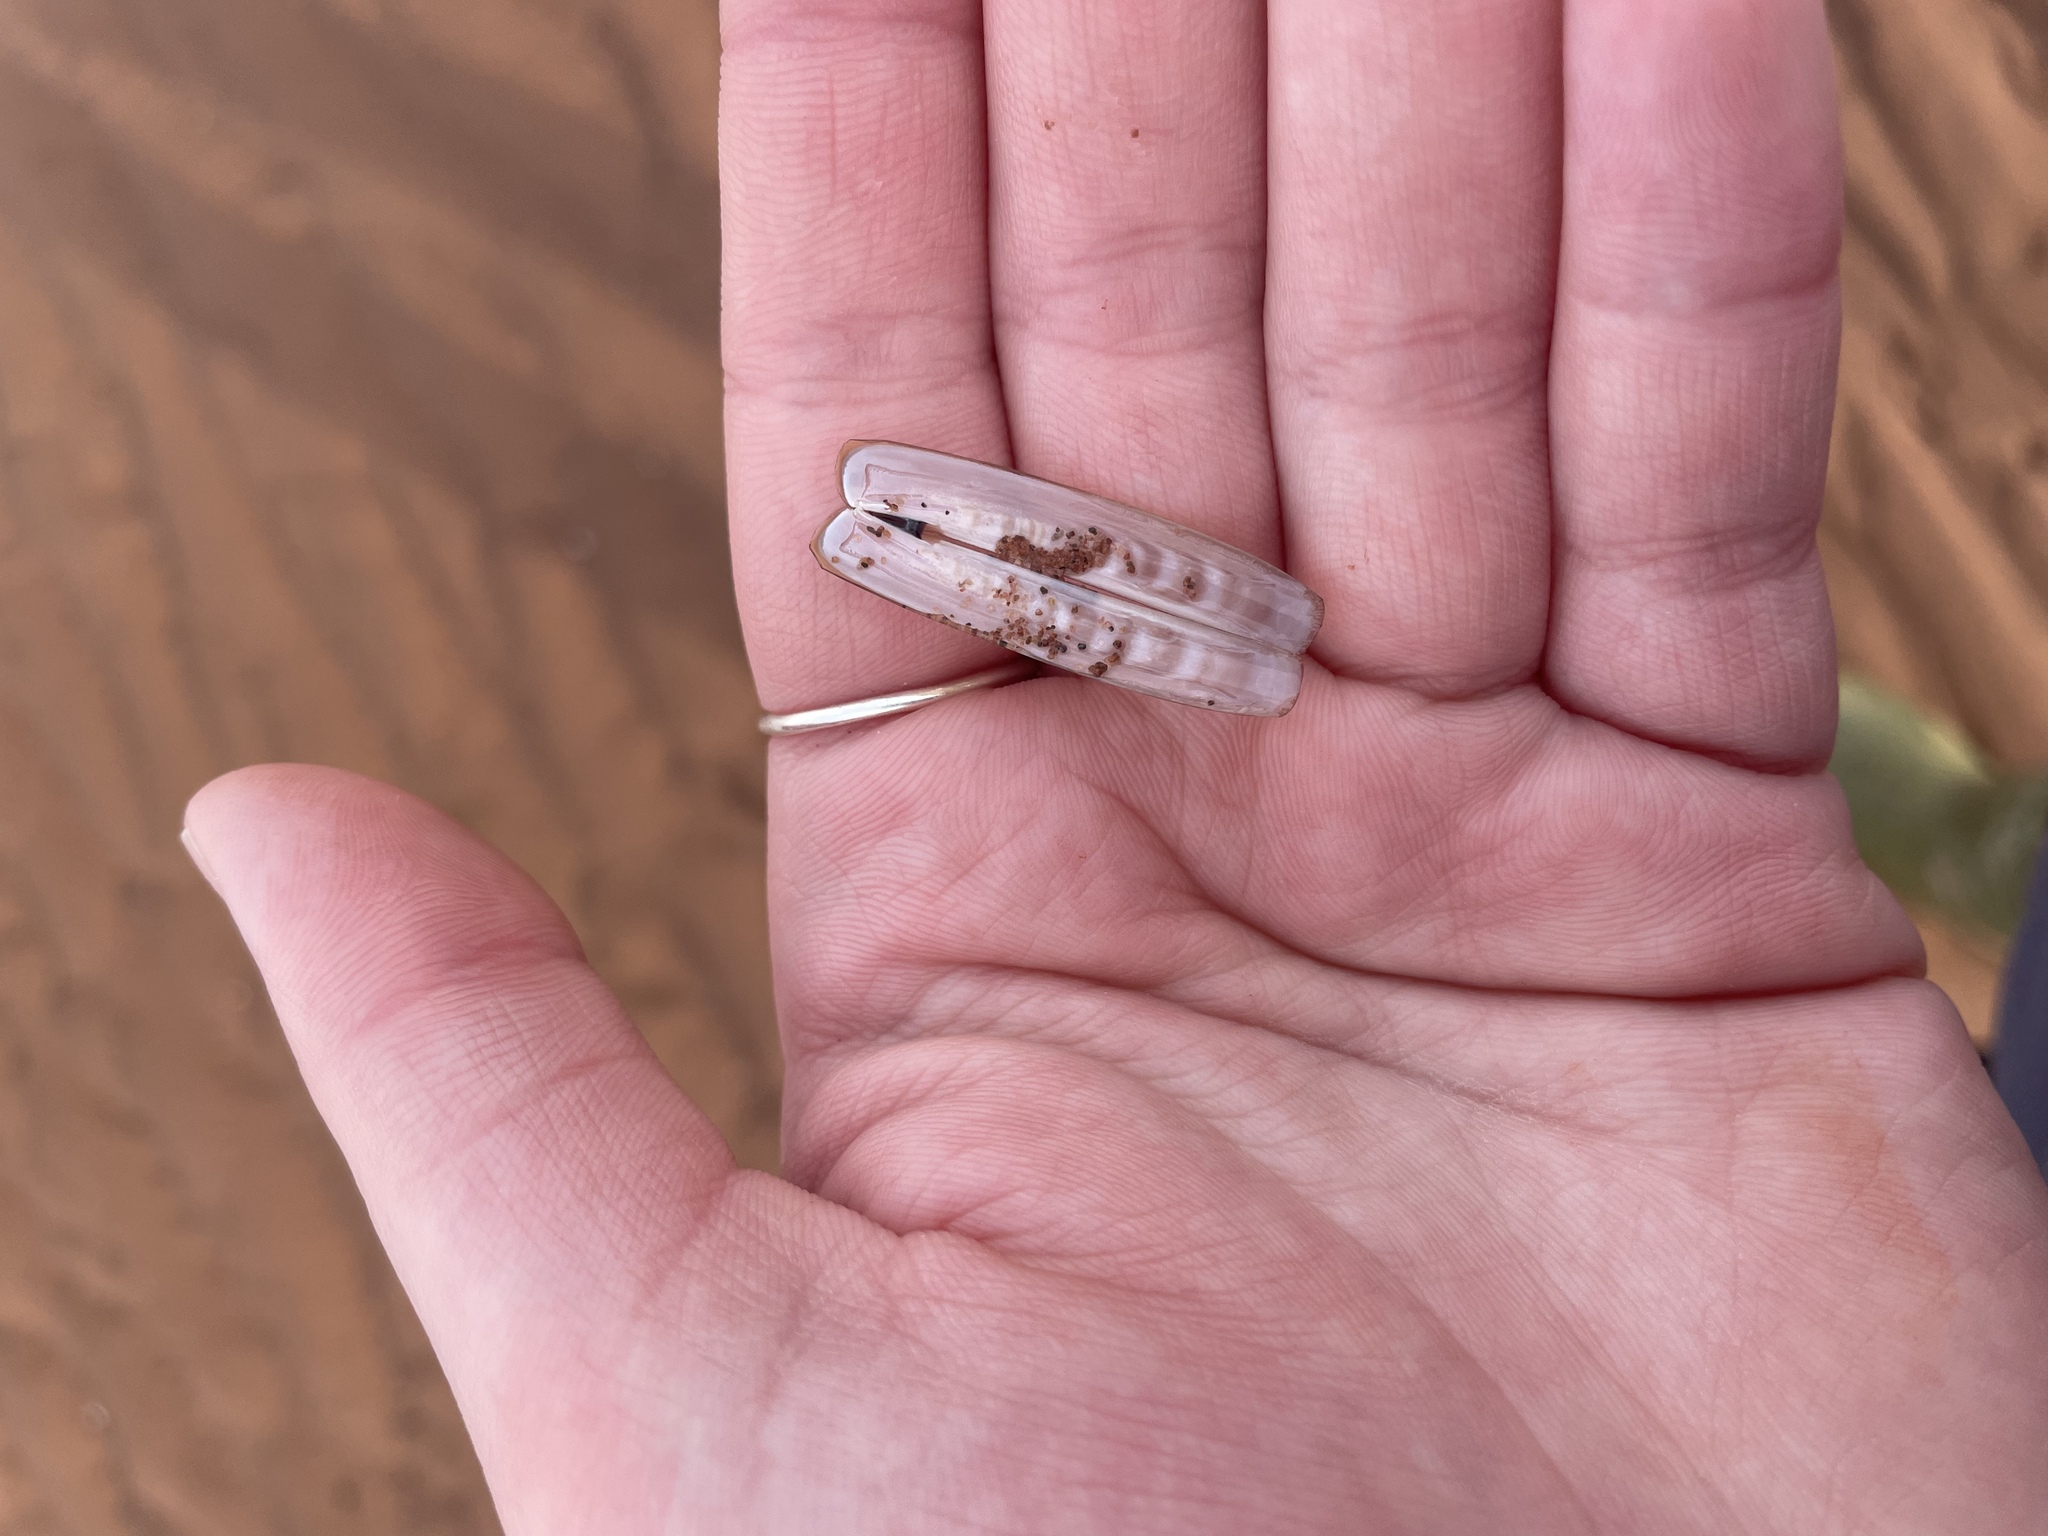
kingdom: Animalia
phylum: Mollusca
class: Bivalvia
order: Adapedonta
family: Pharidae
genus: Ensis
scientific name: Ensis leei
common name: American jack knife clam
